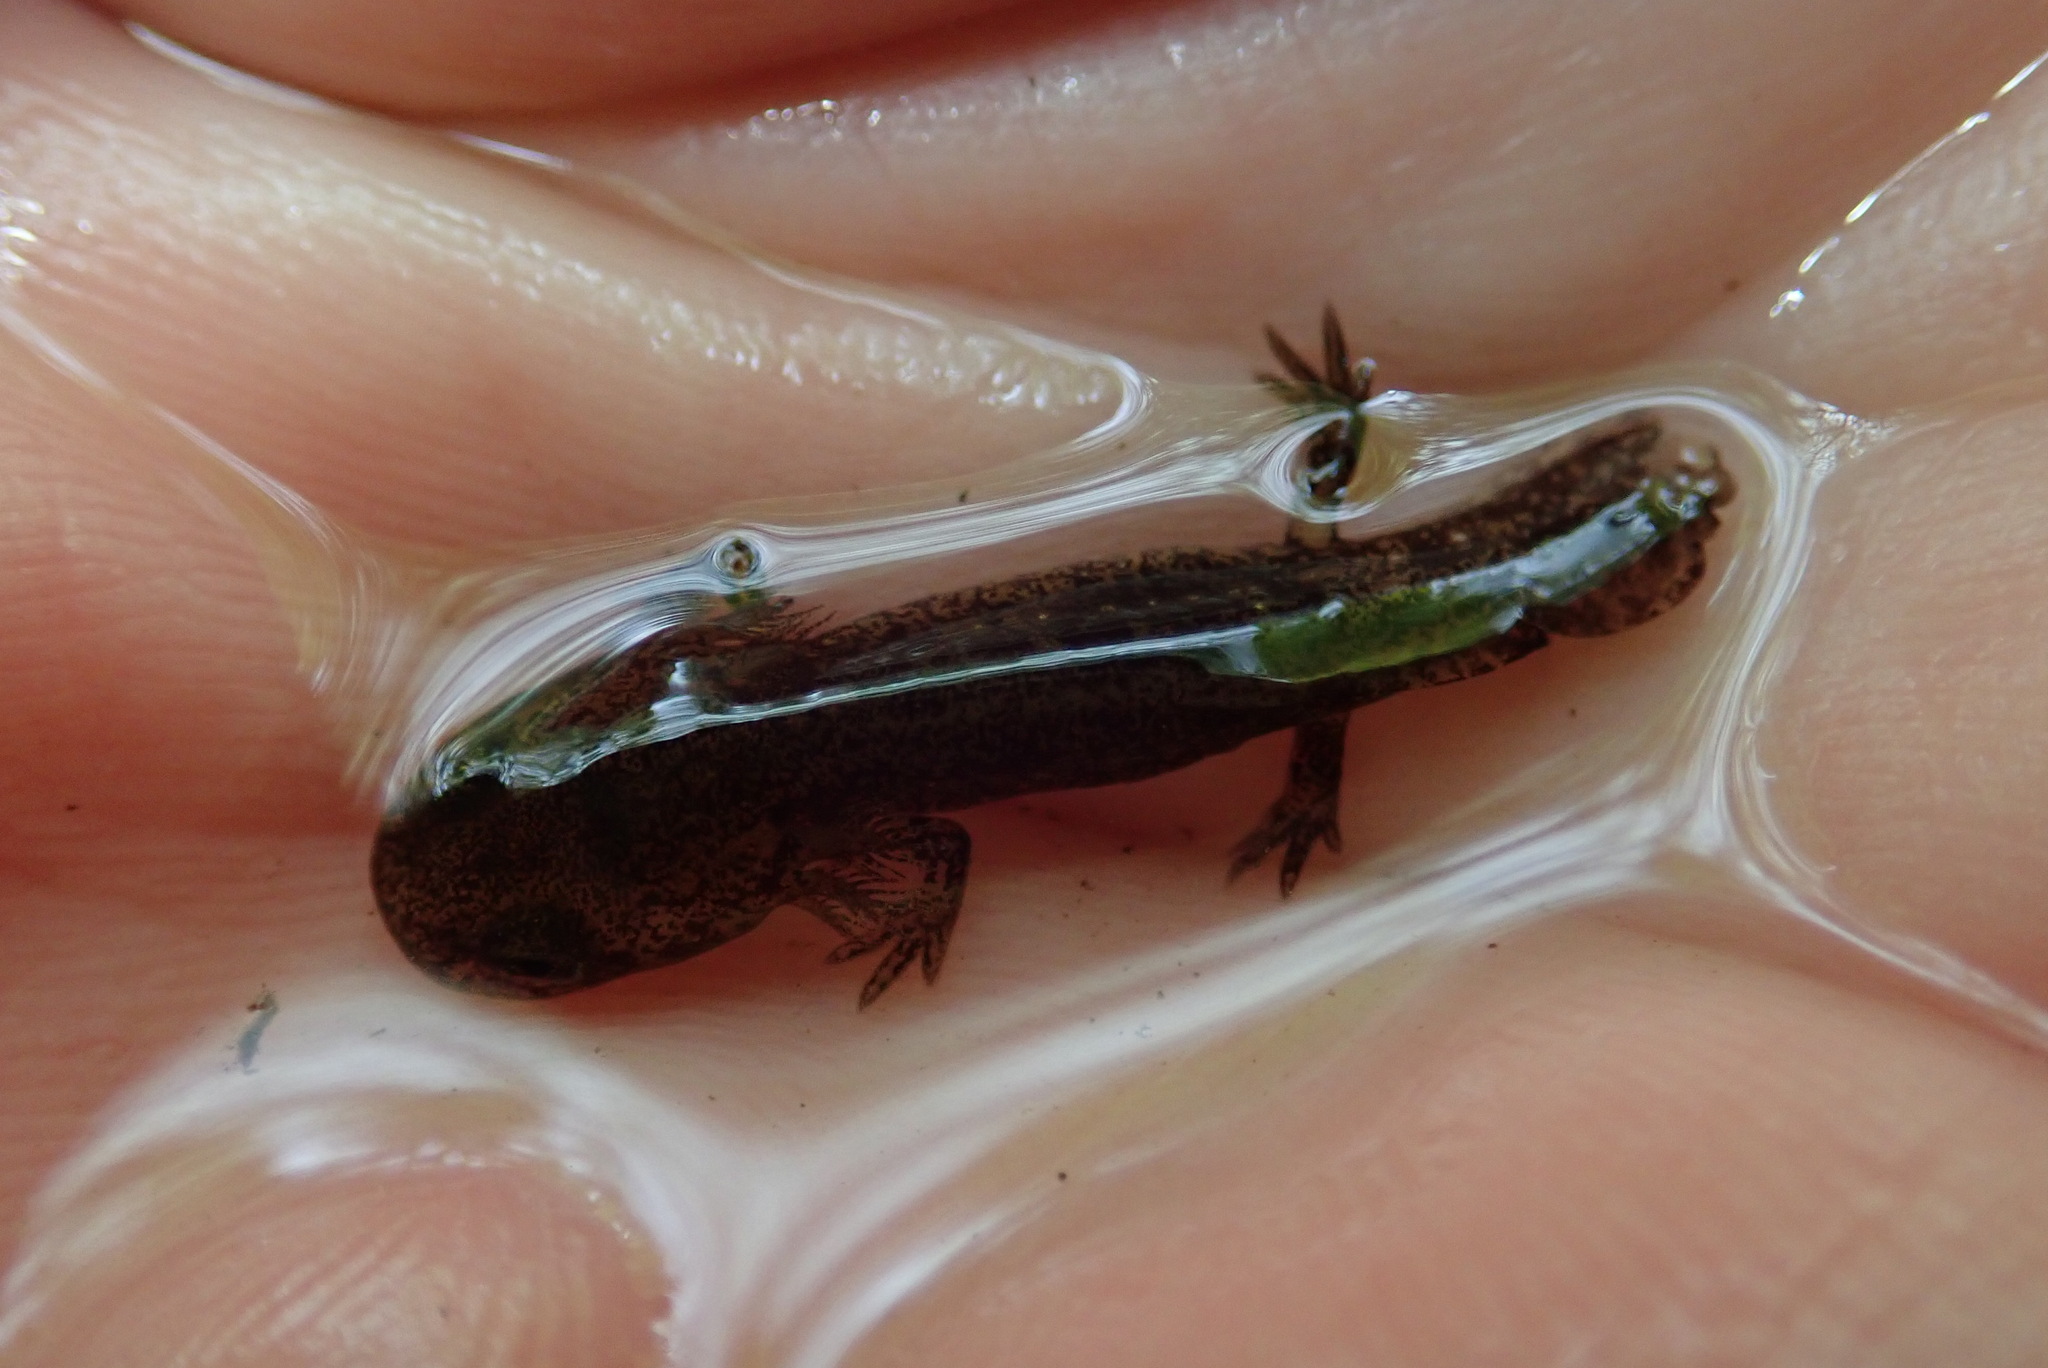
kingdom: Animalia
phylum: Chordata
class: Amphibia
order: Caudata
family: Salamandridae
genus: Salamandra
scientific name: Salamandra salamandra
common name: Fire salamander
